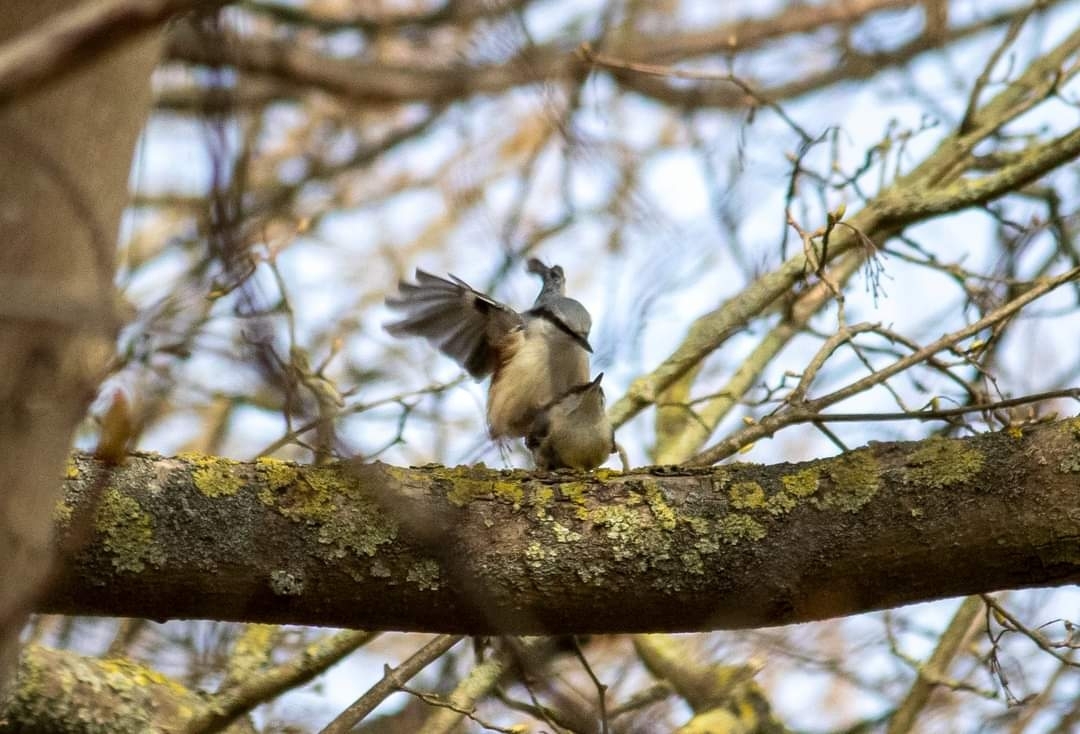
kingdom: Animalia
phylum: Chordata
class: Aves
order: Passeriformes
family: Sittidae
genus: Sitta
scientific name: Sitta europaea
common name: Eurasian nuthatch
